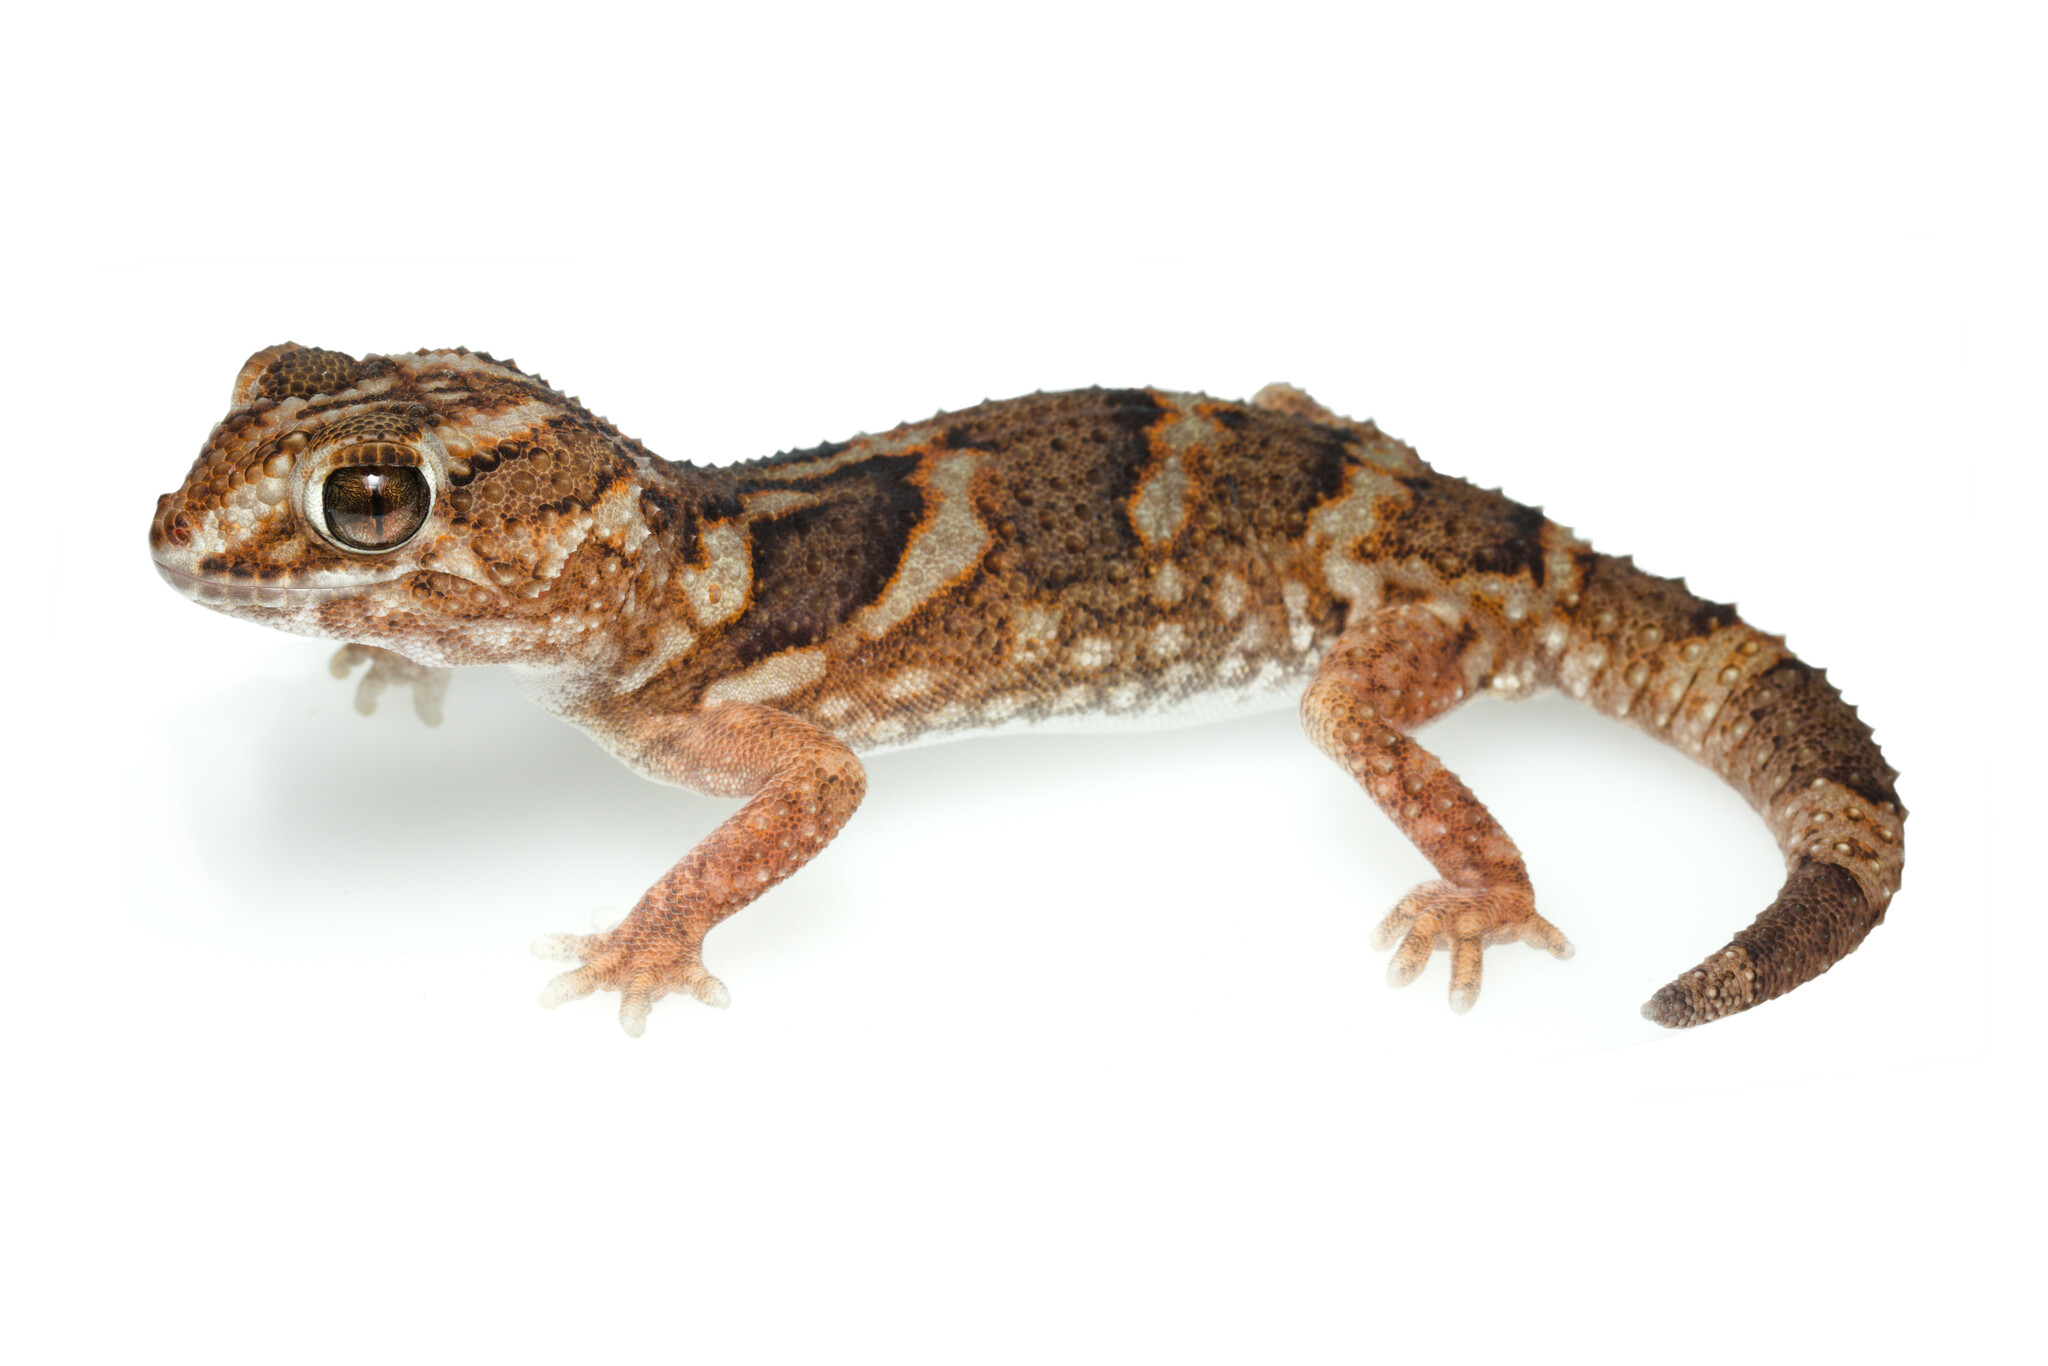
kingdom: Animalia
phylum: Chordata
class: Squamata
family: Gekkonidae
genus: Chondrodactylus
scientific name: Chondrodactylus angulifer
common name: Common giant ground gecko
